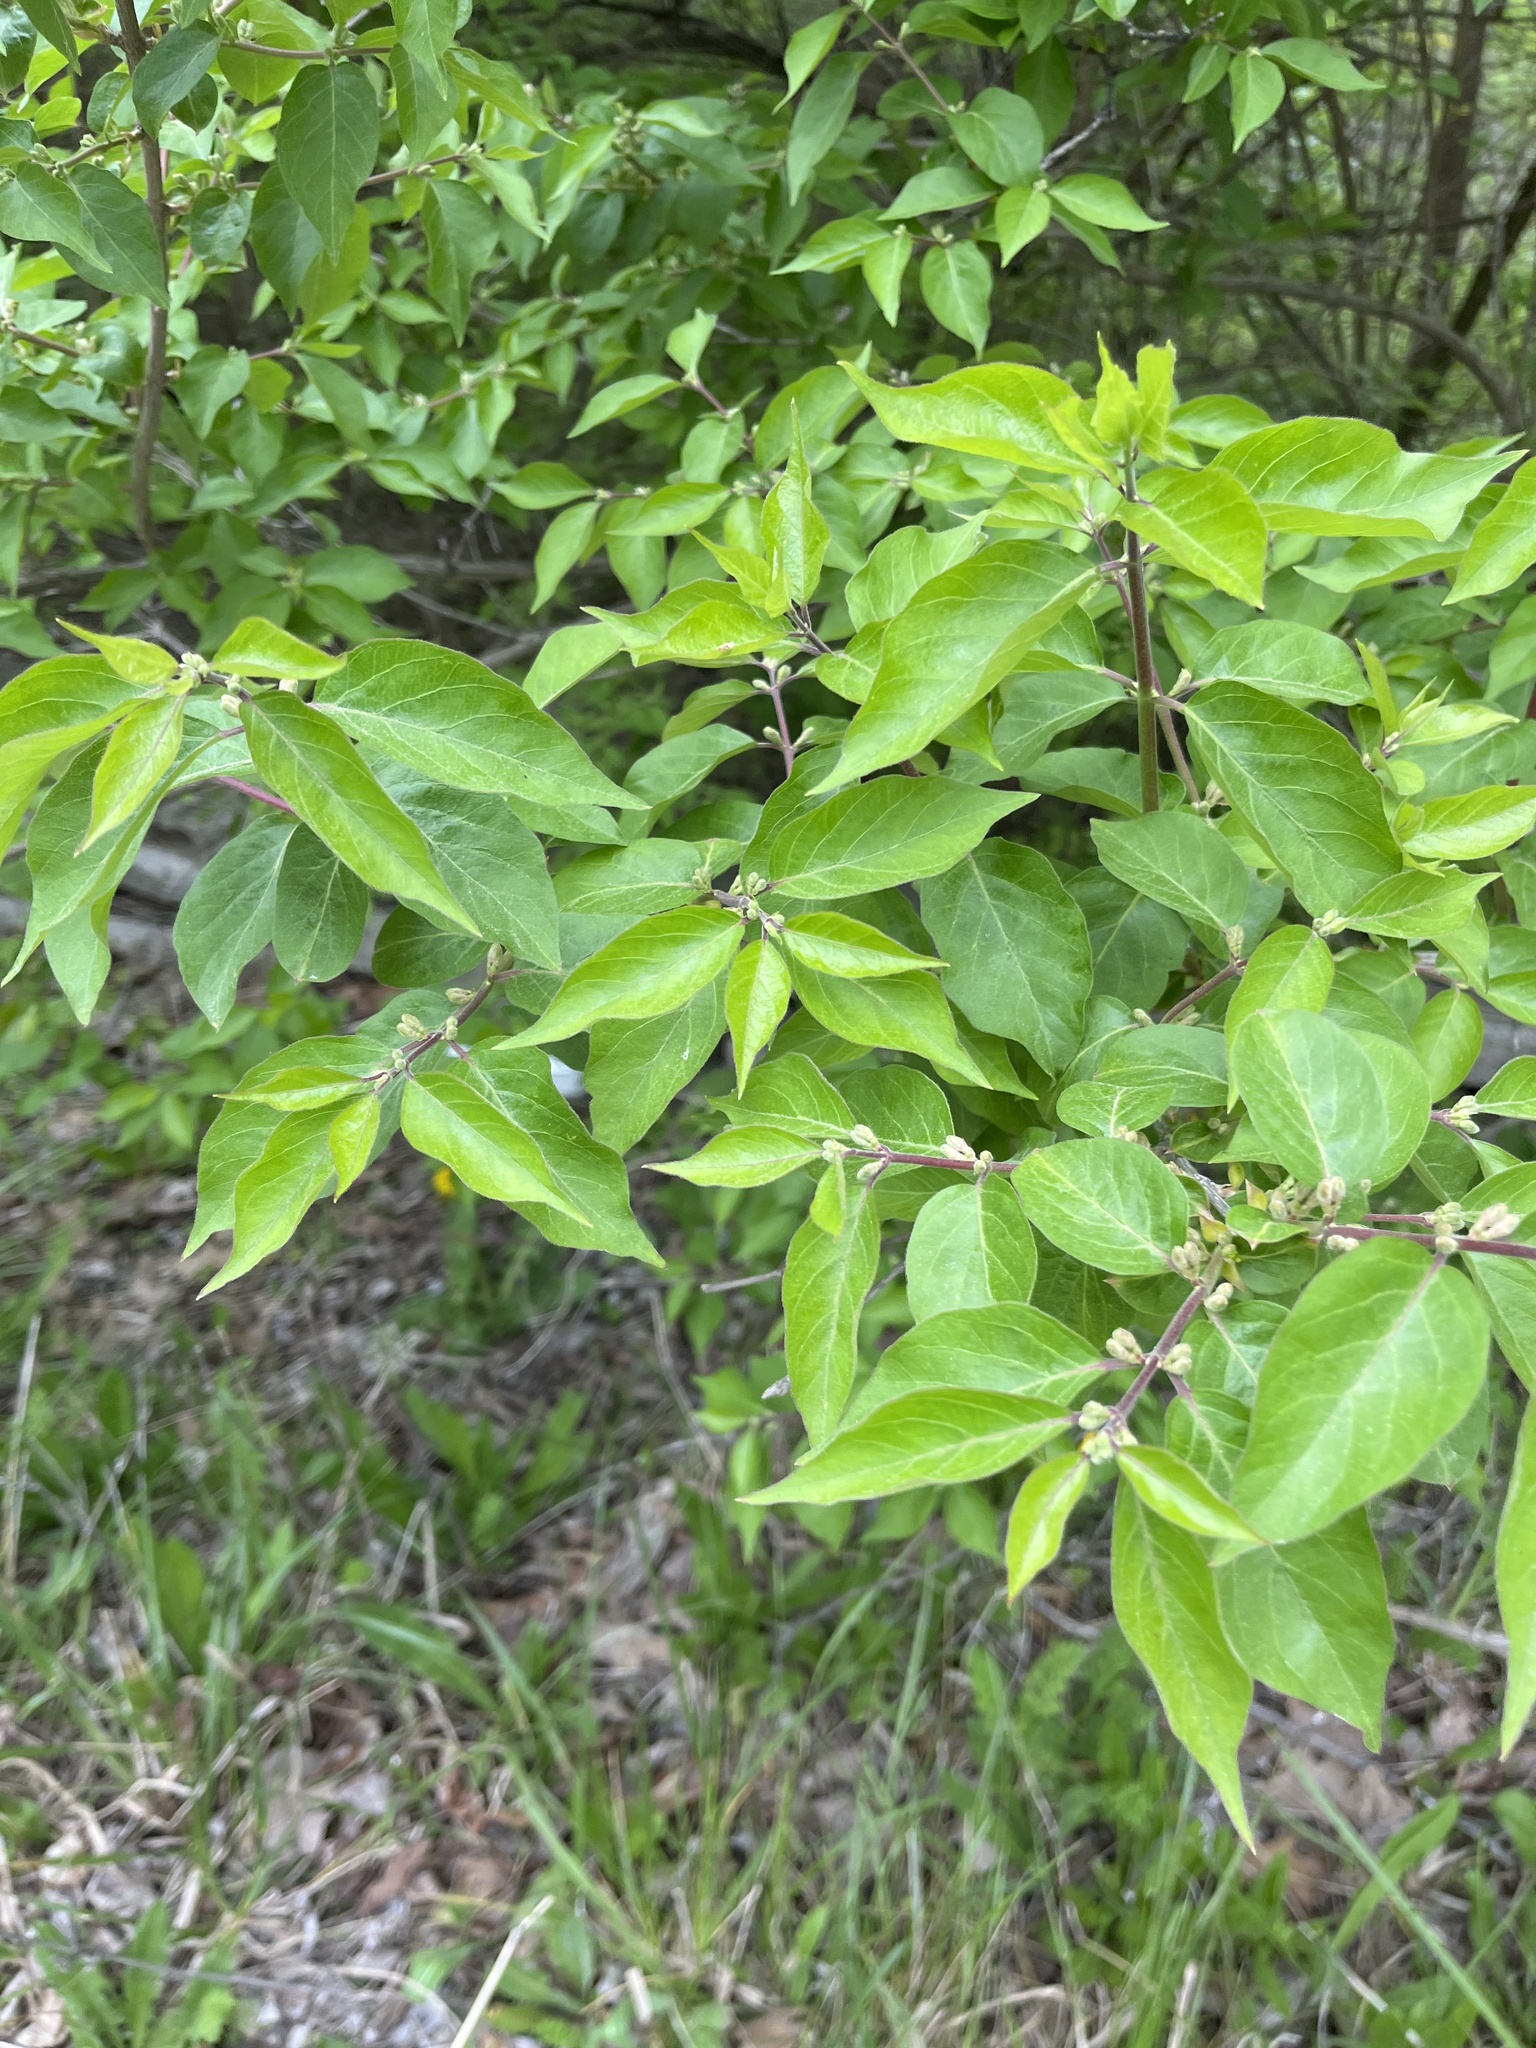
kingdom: Plantae
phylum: Tracheophyta
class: Magnoliopsida
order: Dipsacales
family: Caprifoliaceae
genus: Lonicera
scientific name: Lonicera maackii
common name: Amur honeysuckle
